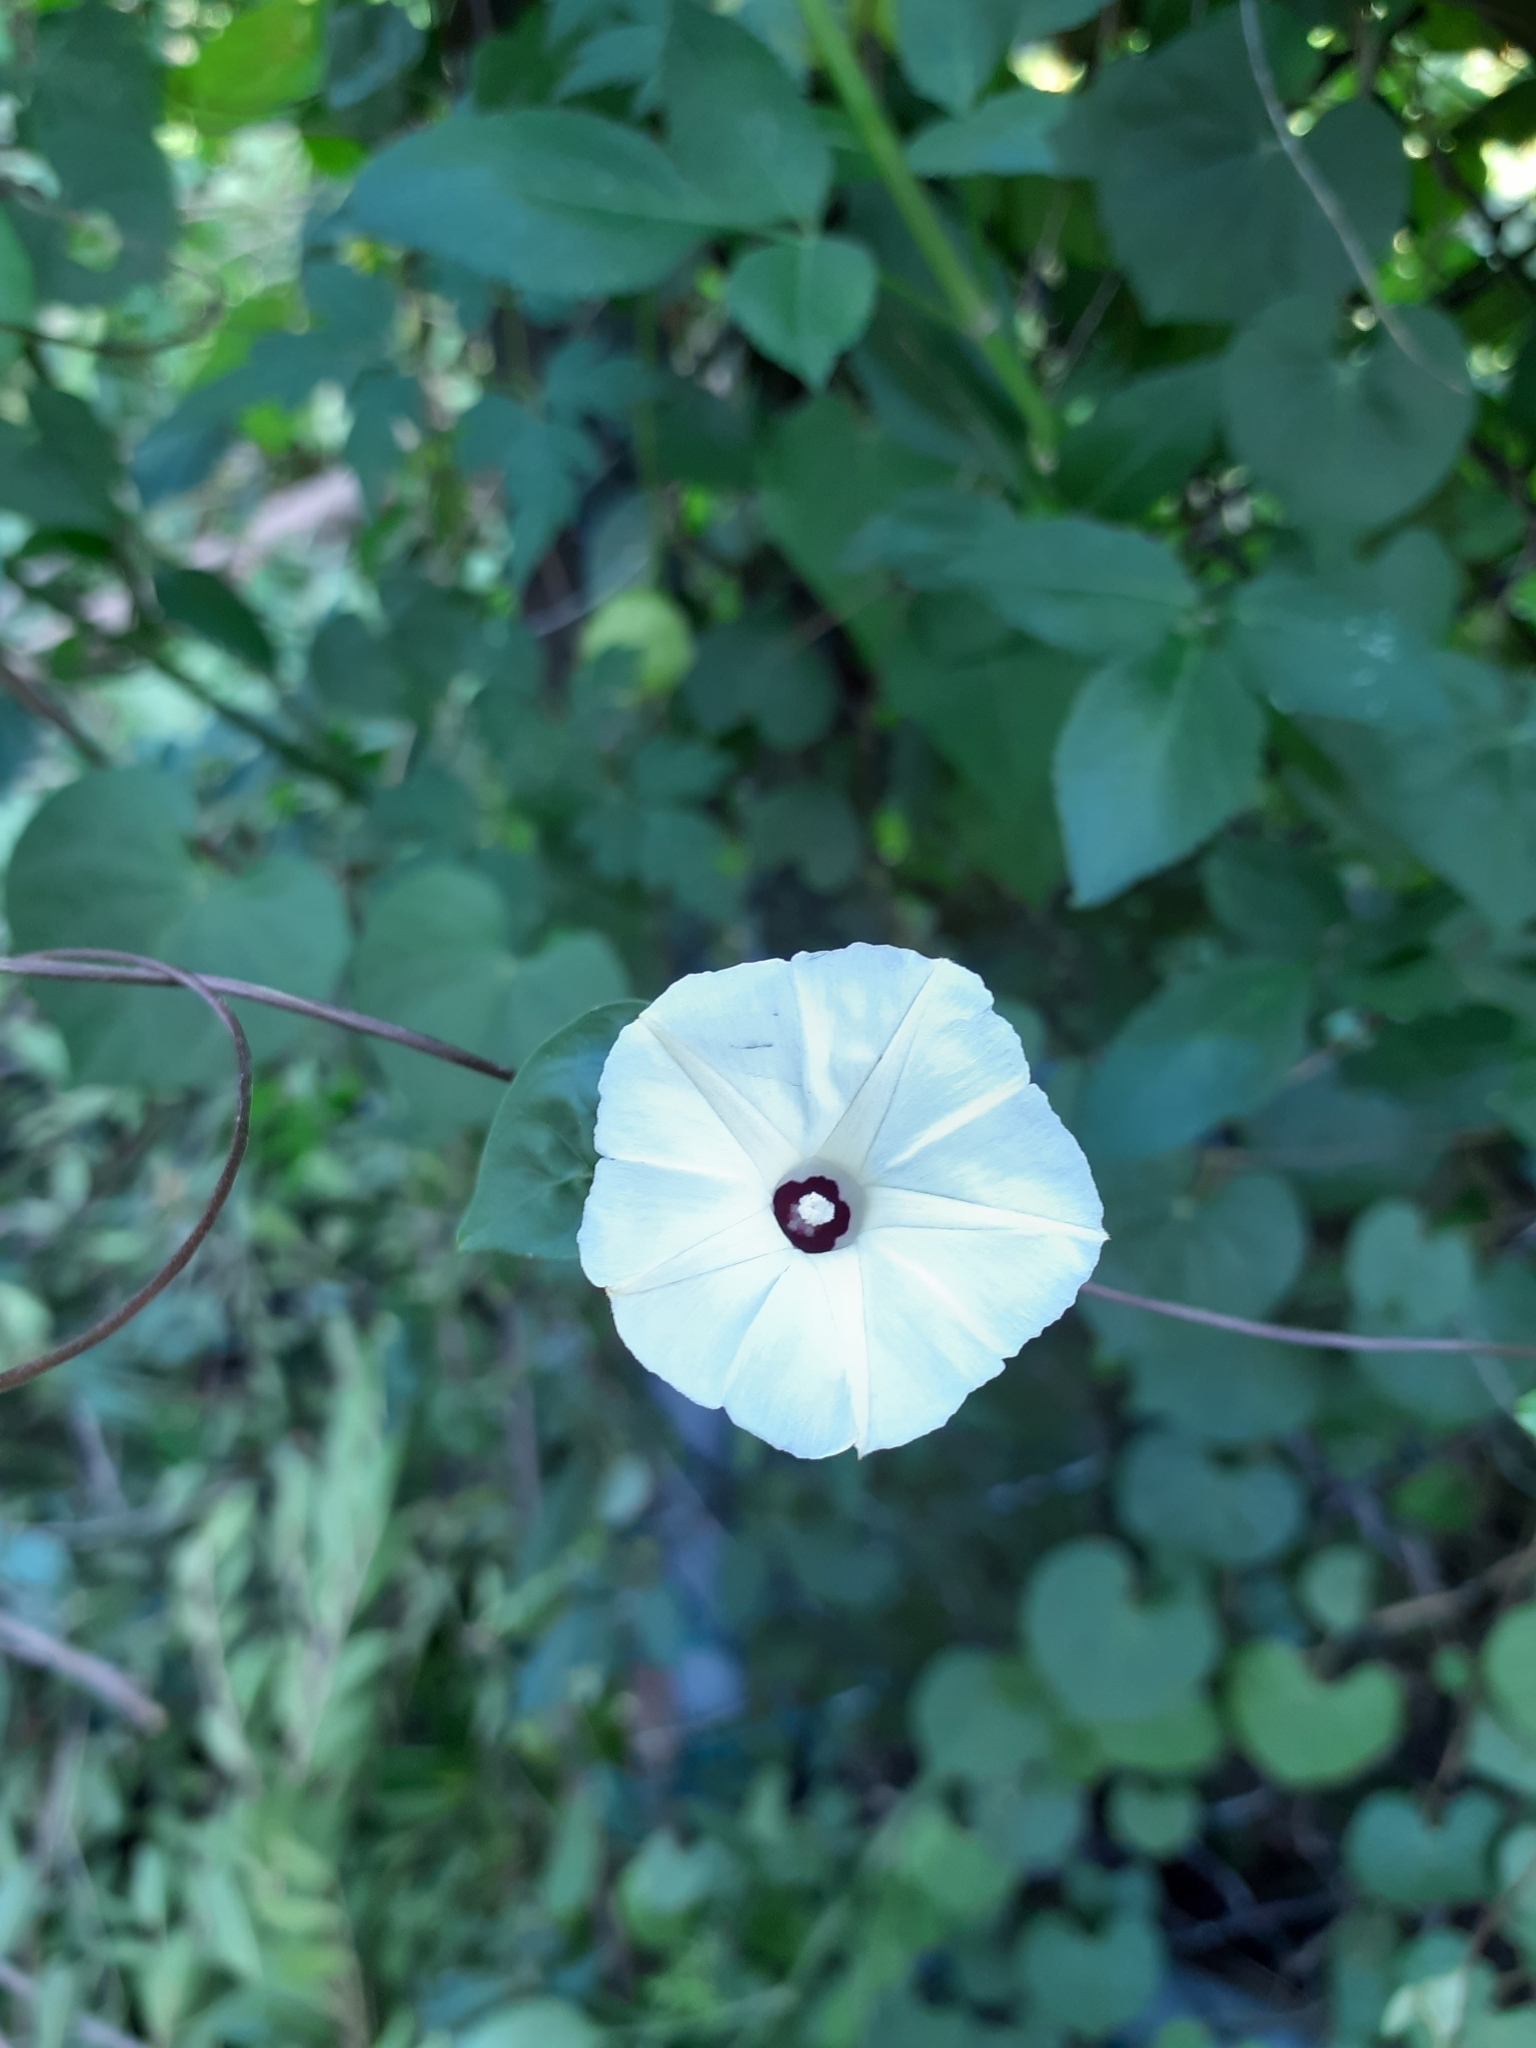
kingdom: Plantae
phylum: Tracheophyta
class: Magnoliopsida
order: Solanales
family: Convolvulaceae
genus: Ipomoea
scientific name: Ipomoea obscura
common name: Obscure morning-glory
